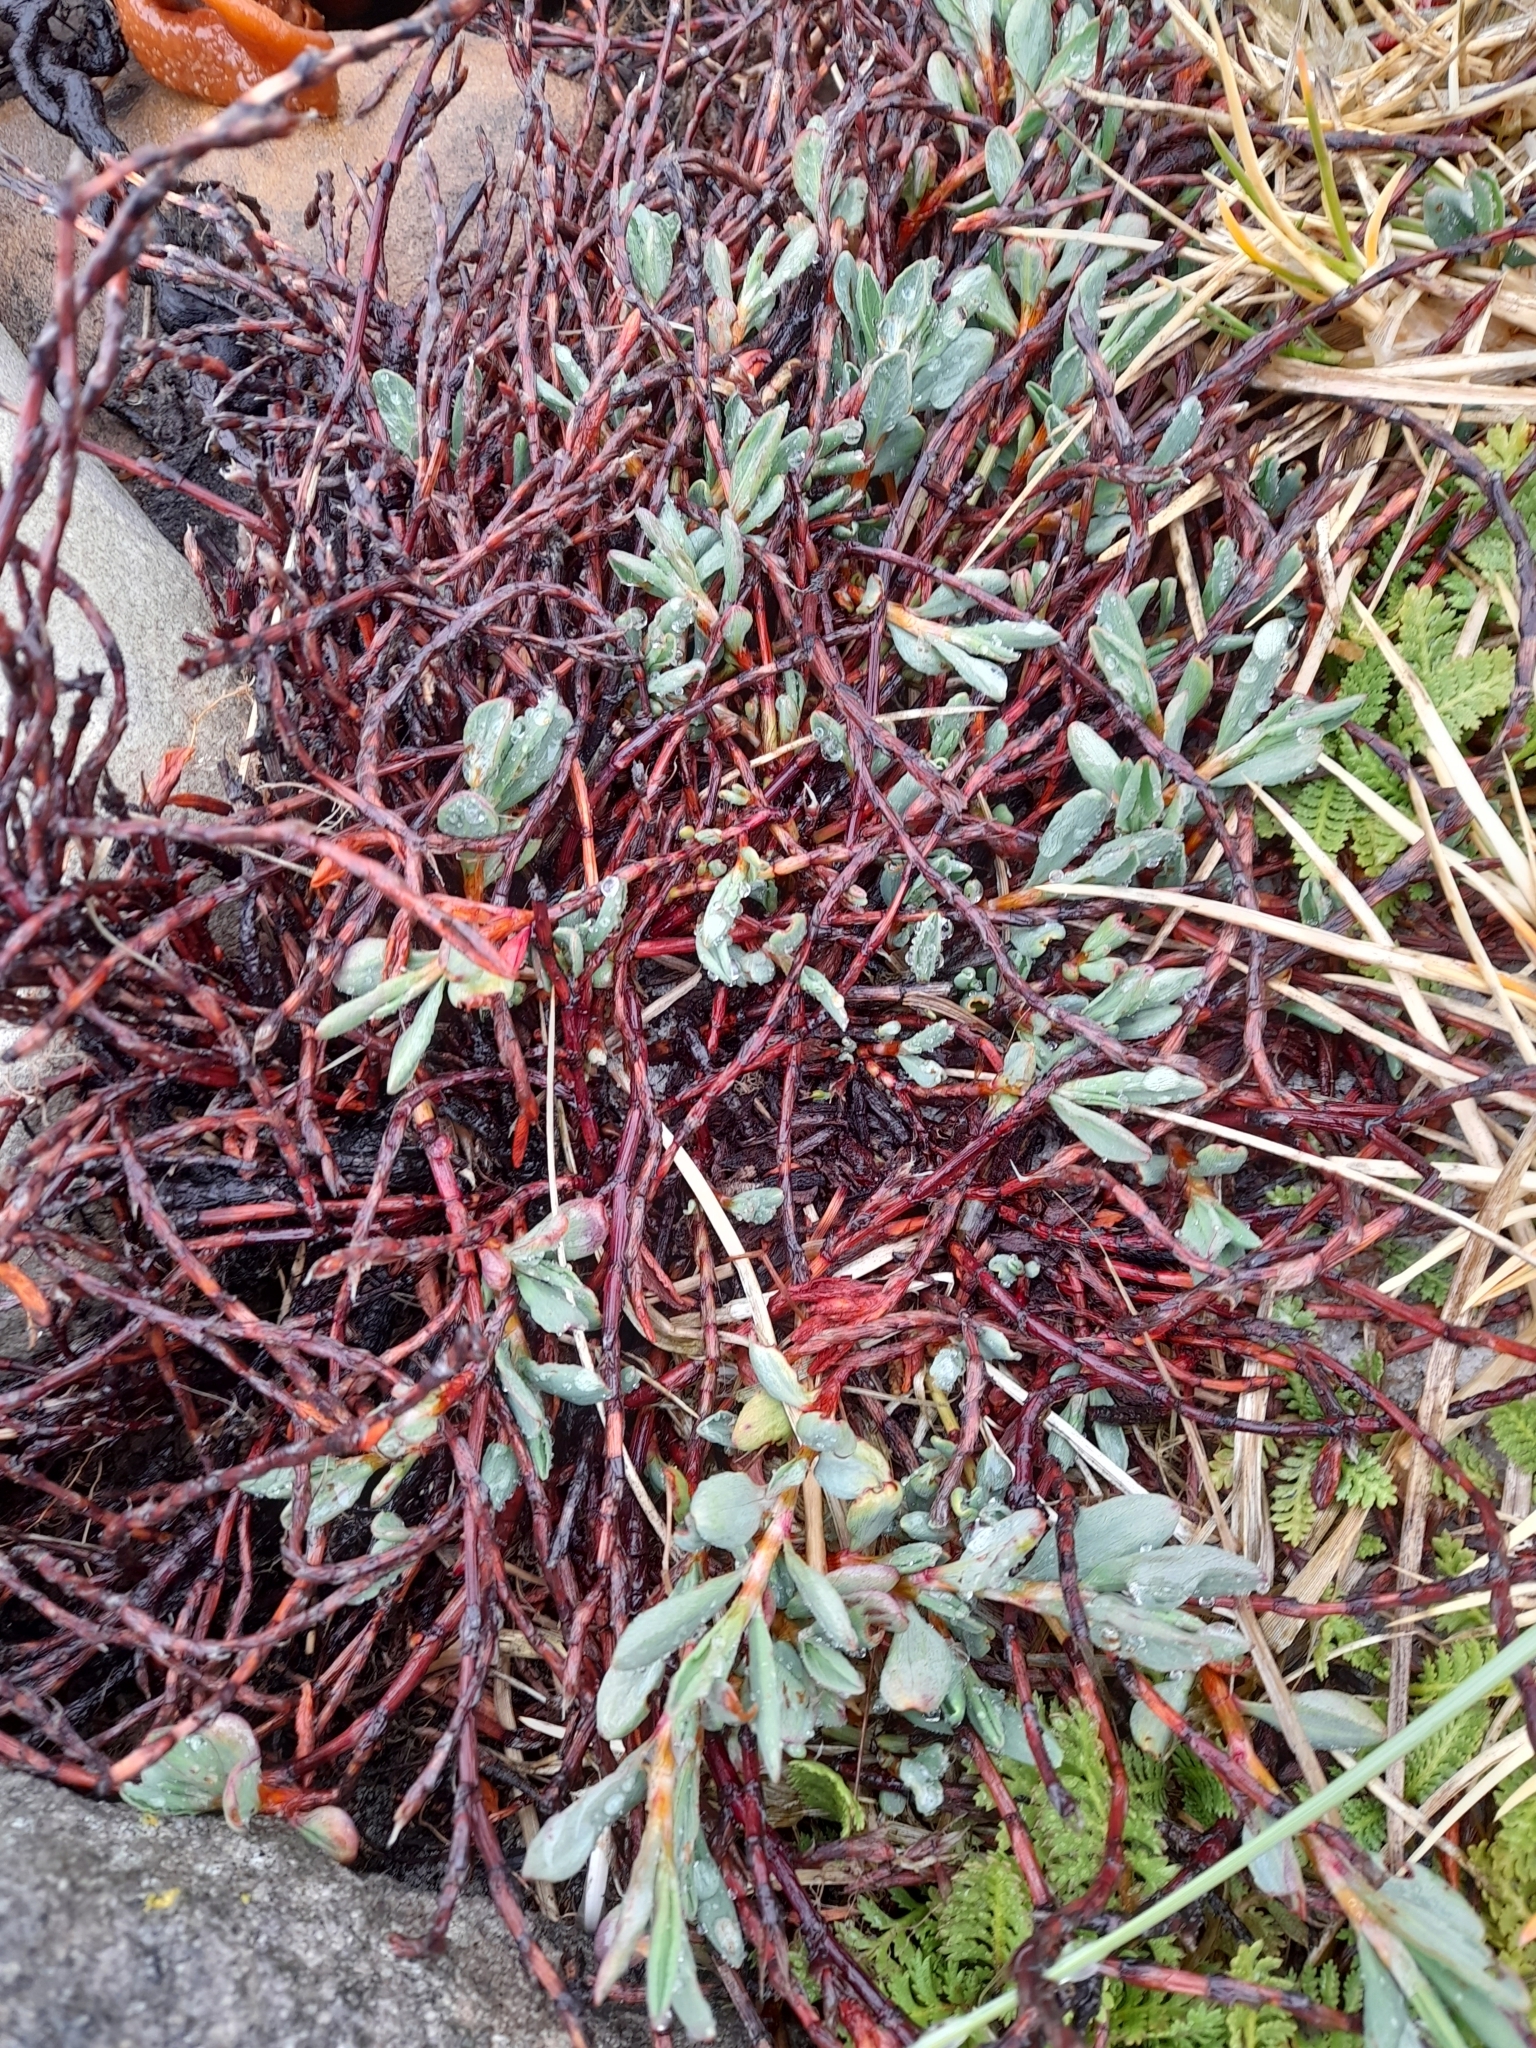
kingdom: Plantae
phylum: Tracheophyta
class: Magnoliopsida
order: Caryophyllales
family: Polygonaceae
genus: Polygonum
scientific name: Polygonum maritimum
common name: Sea knotgrass
